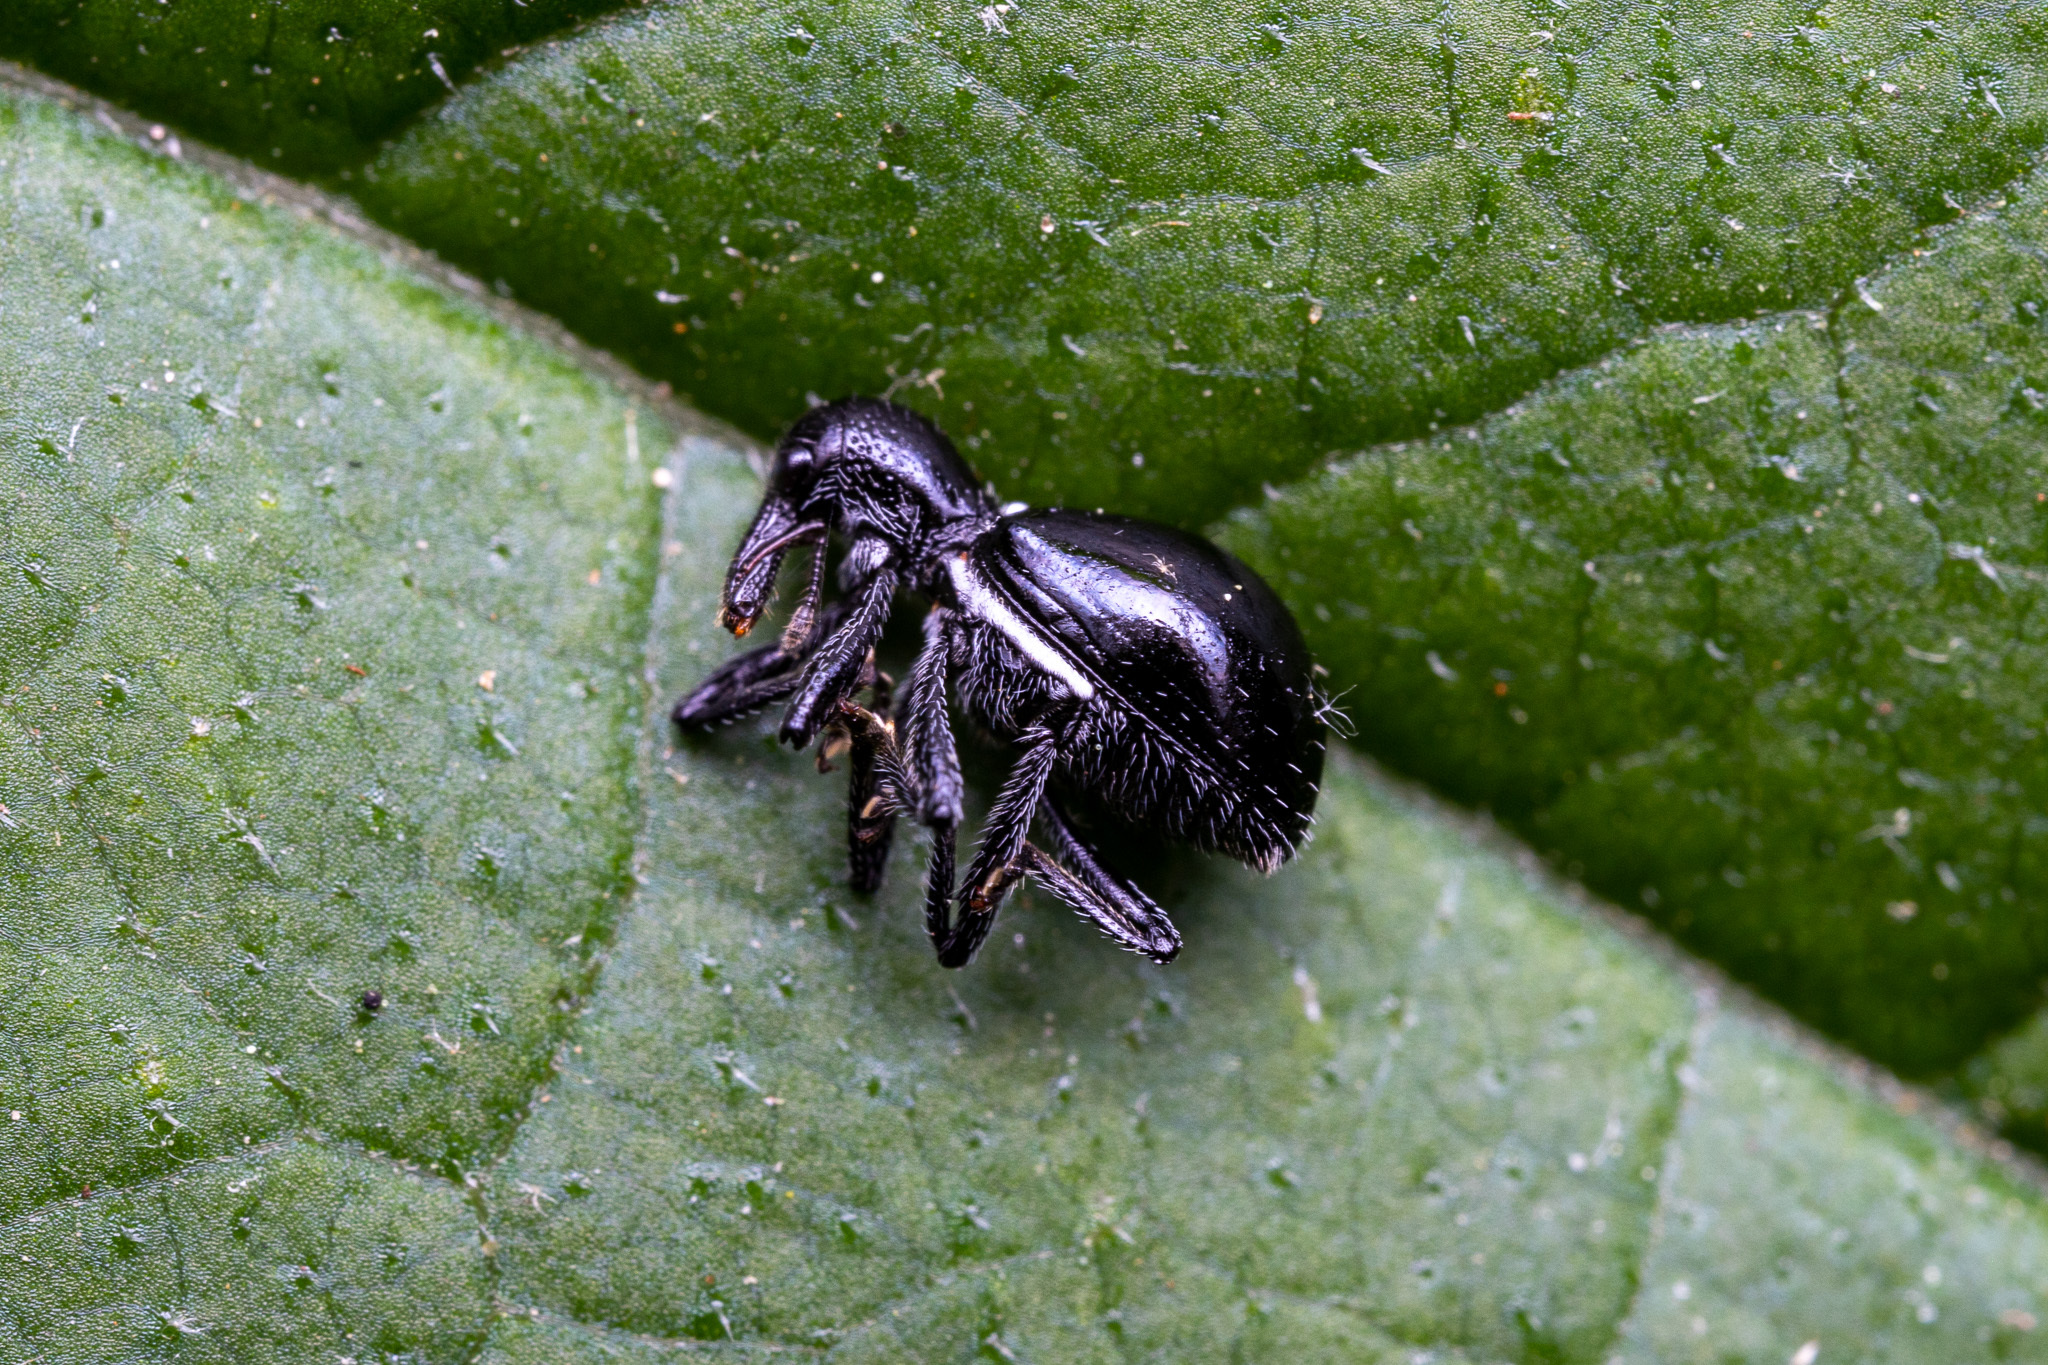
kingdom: Animalia
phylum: Arthropoda
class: Insecta
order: Coleoptera
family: Curculionidae
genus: Otidocephalus
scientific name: Otidocephalus chevrolatii
